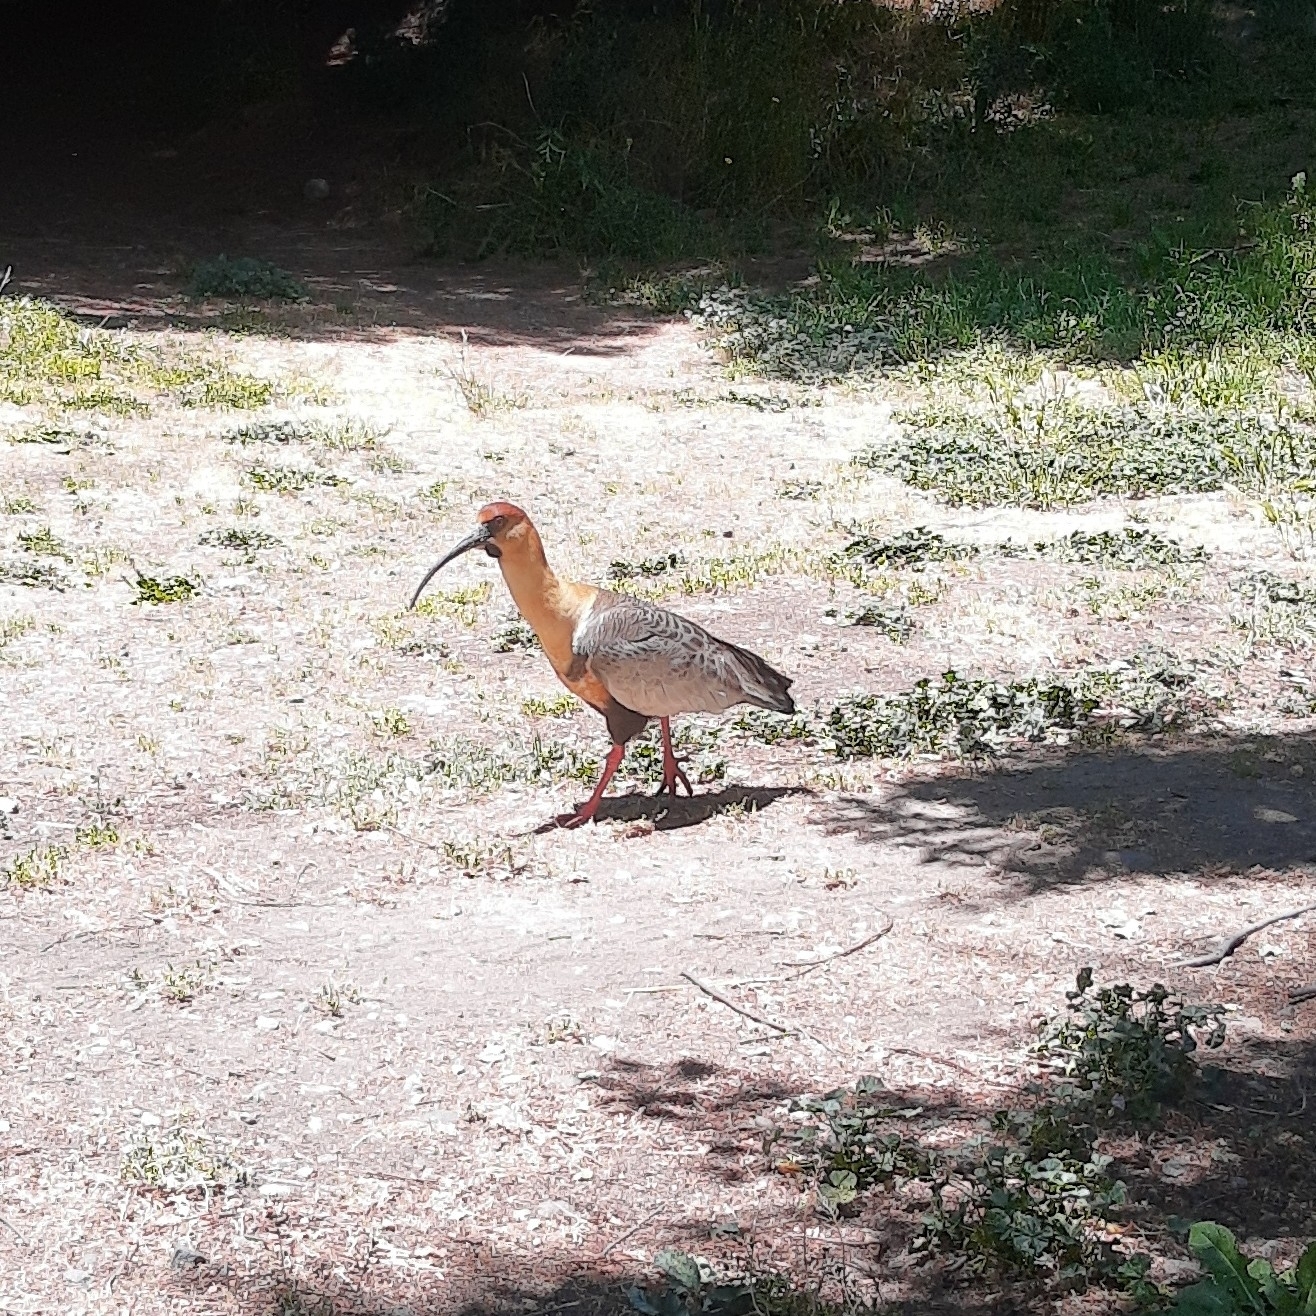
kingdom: Animalia
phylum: Chordata
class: Aves
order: Pelecaniformes
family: Threskiornithidae
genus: Theristicus
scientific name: Theristicus melanopis
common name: Black-faced ibis
